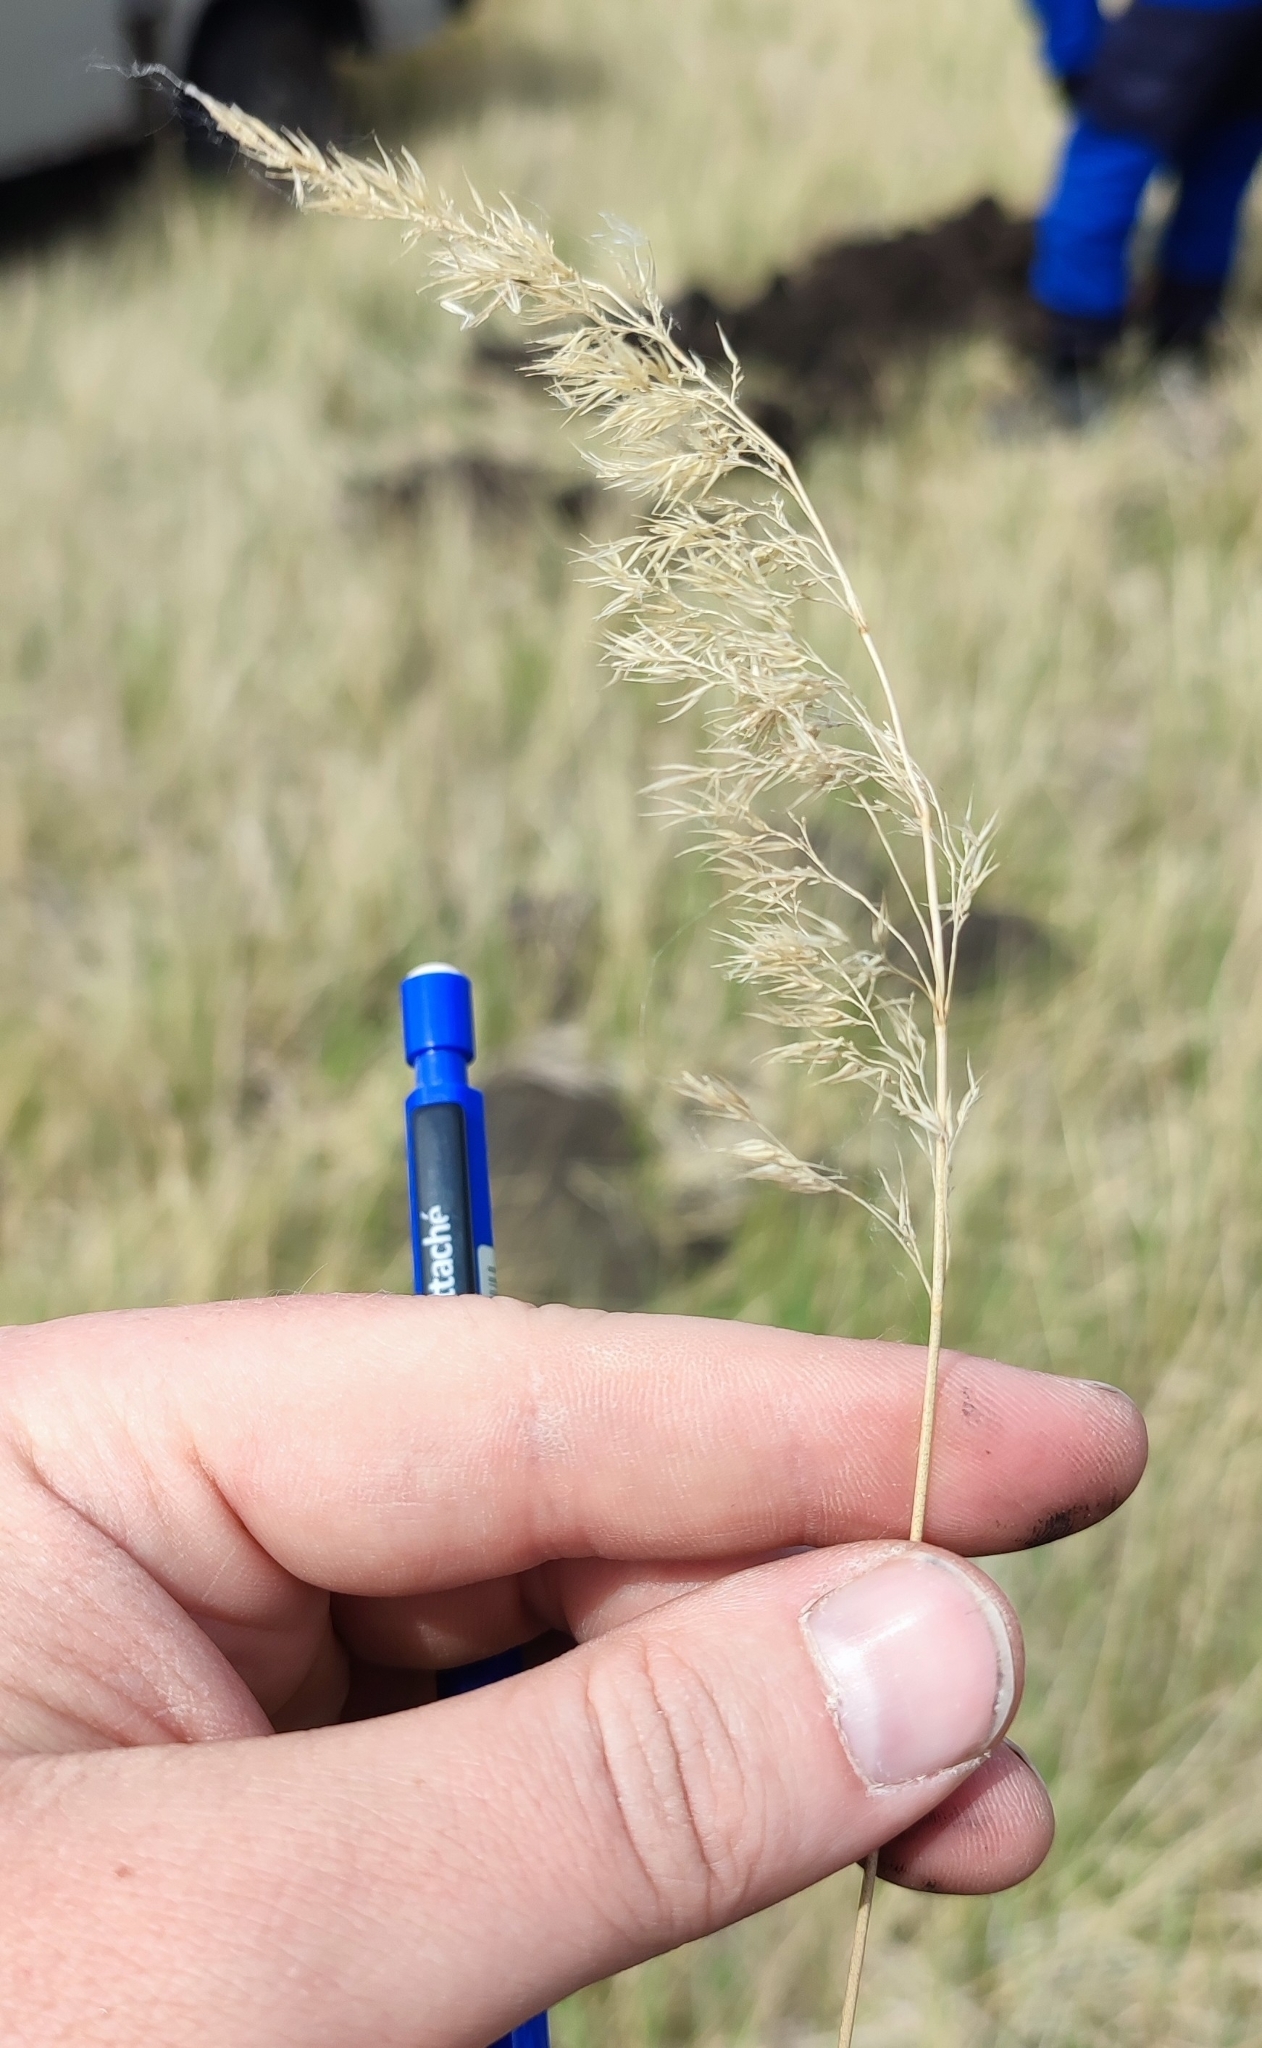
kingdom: Plantae
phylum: Tracheophyta
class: Liliopsida
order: Poales
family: Poaceae
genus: Calamagrostis
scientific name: Calamagrostis epigejos
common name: Wood small-reed
